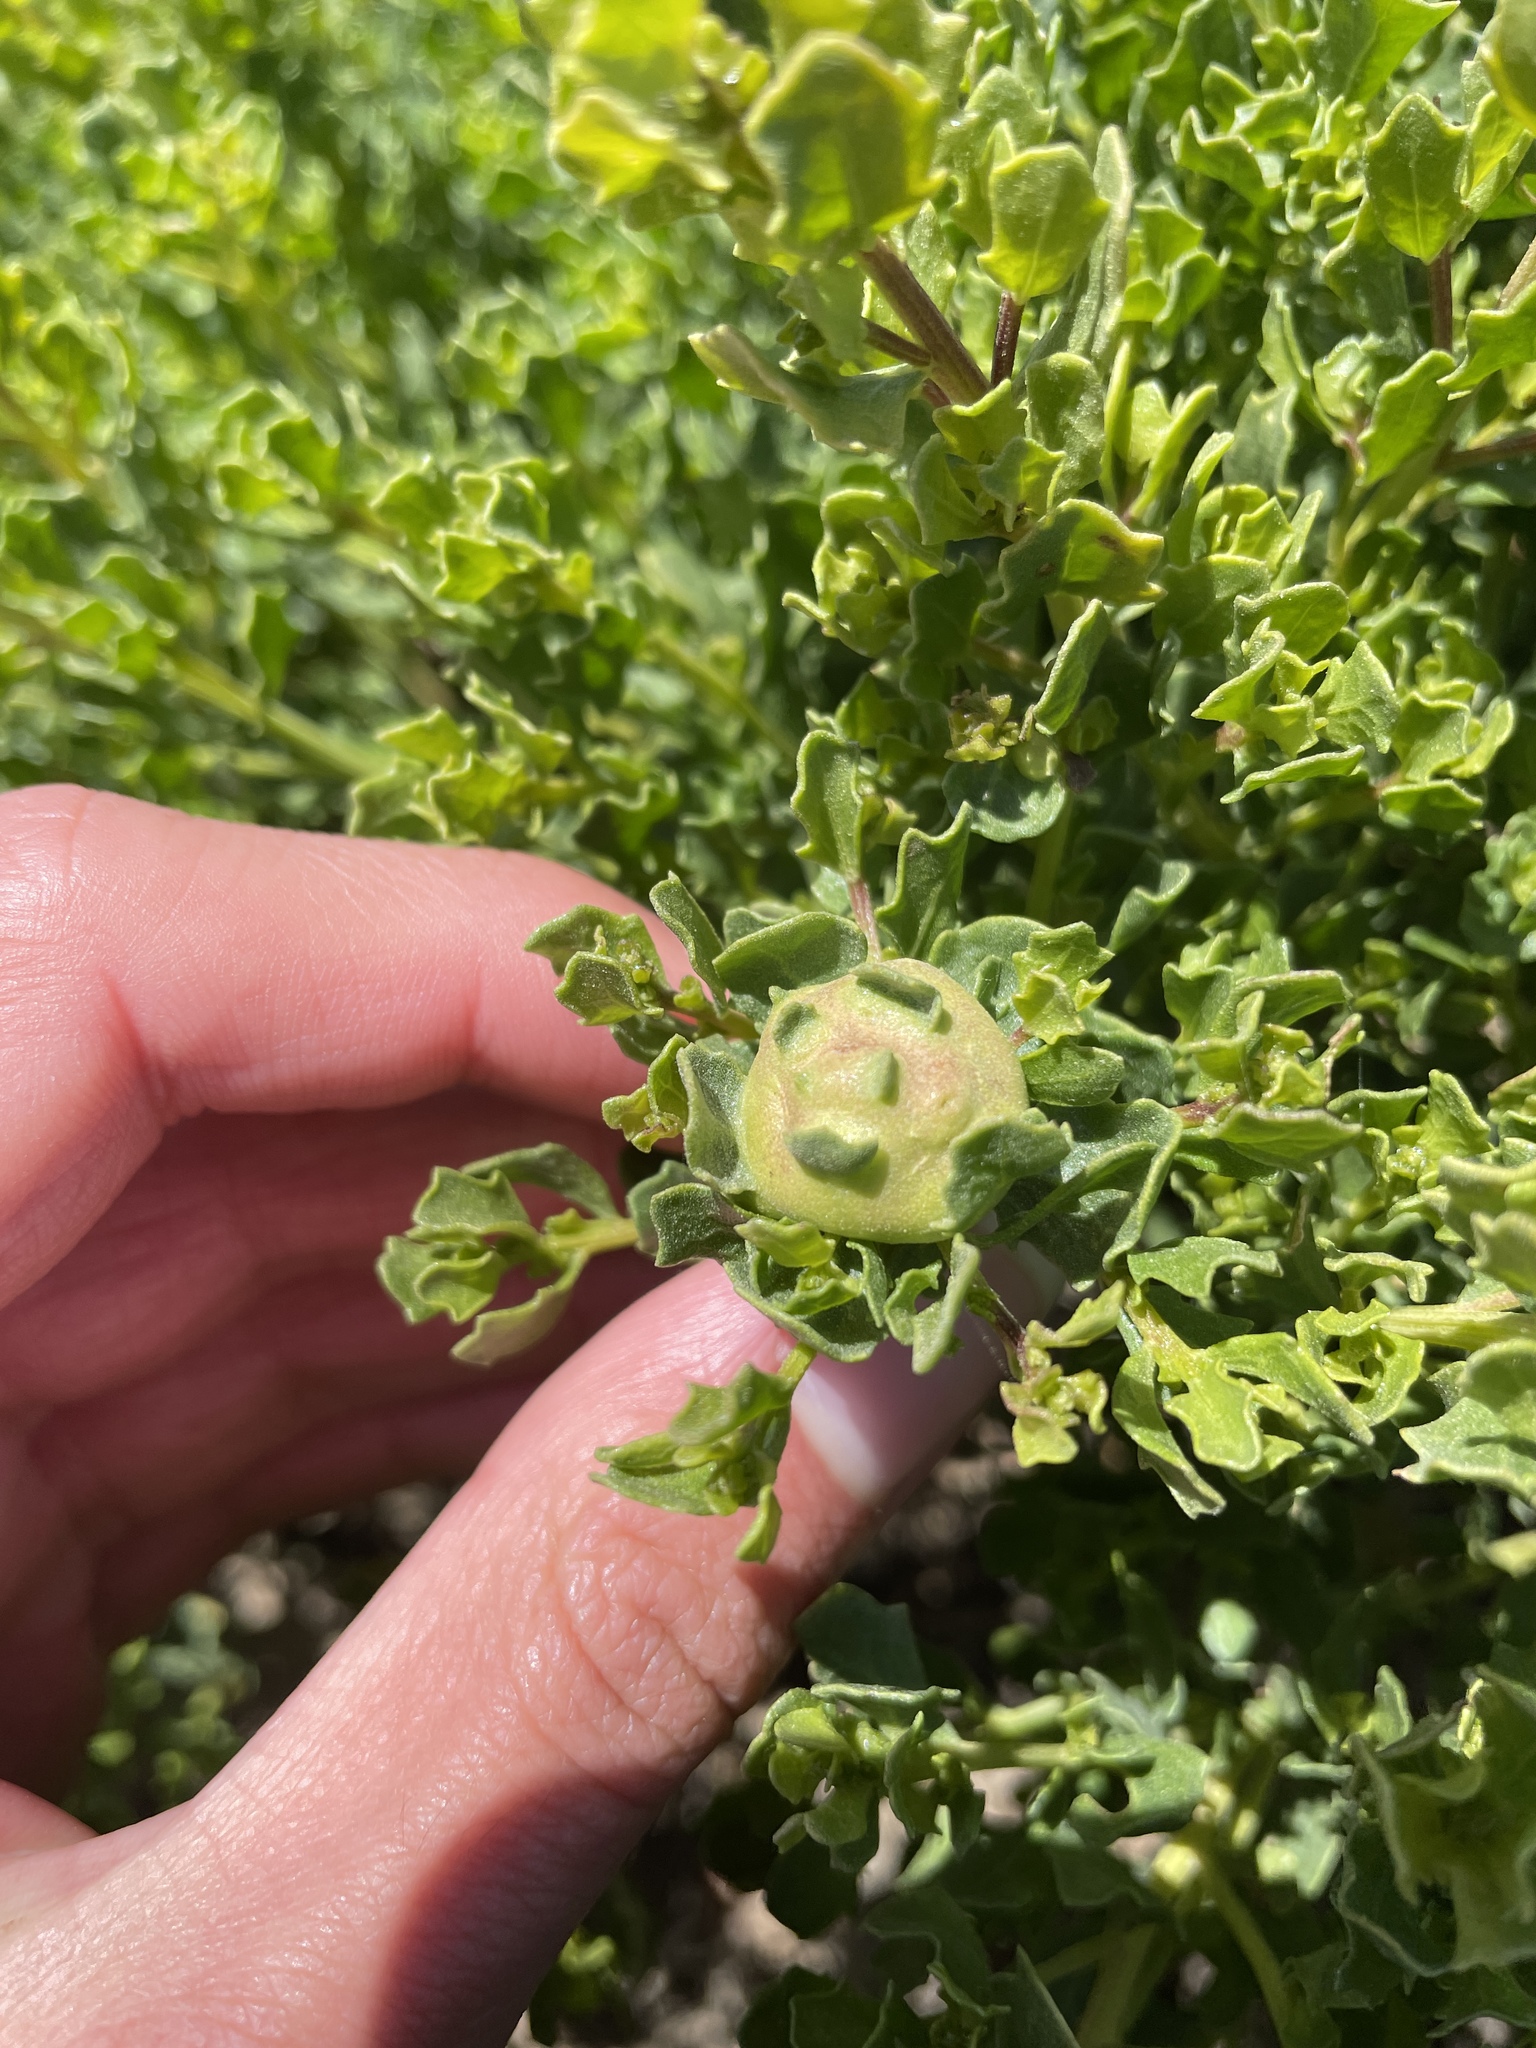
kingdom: Animalia
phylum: Arthropoda
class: Insecta
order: Diptera
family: Cecidomyiidae
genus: Rhopalomyia
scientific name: Rhopalomyia californica
